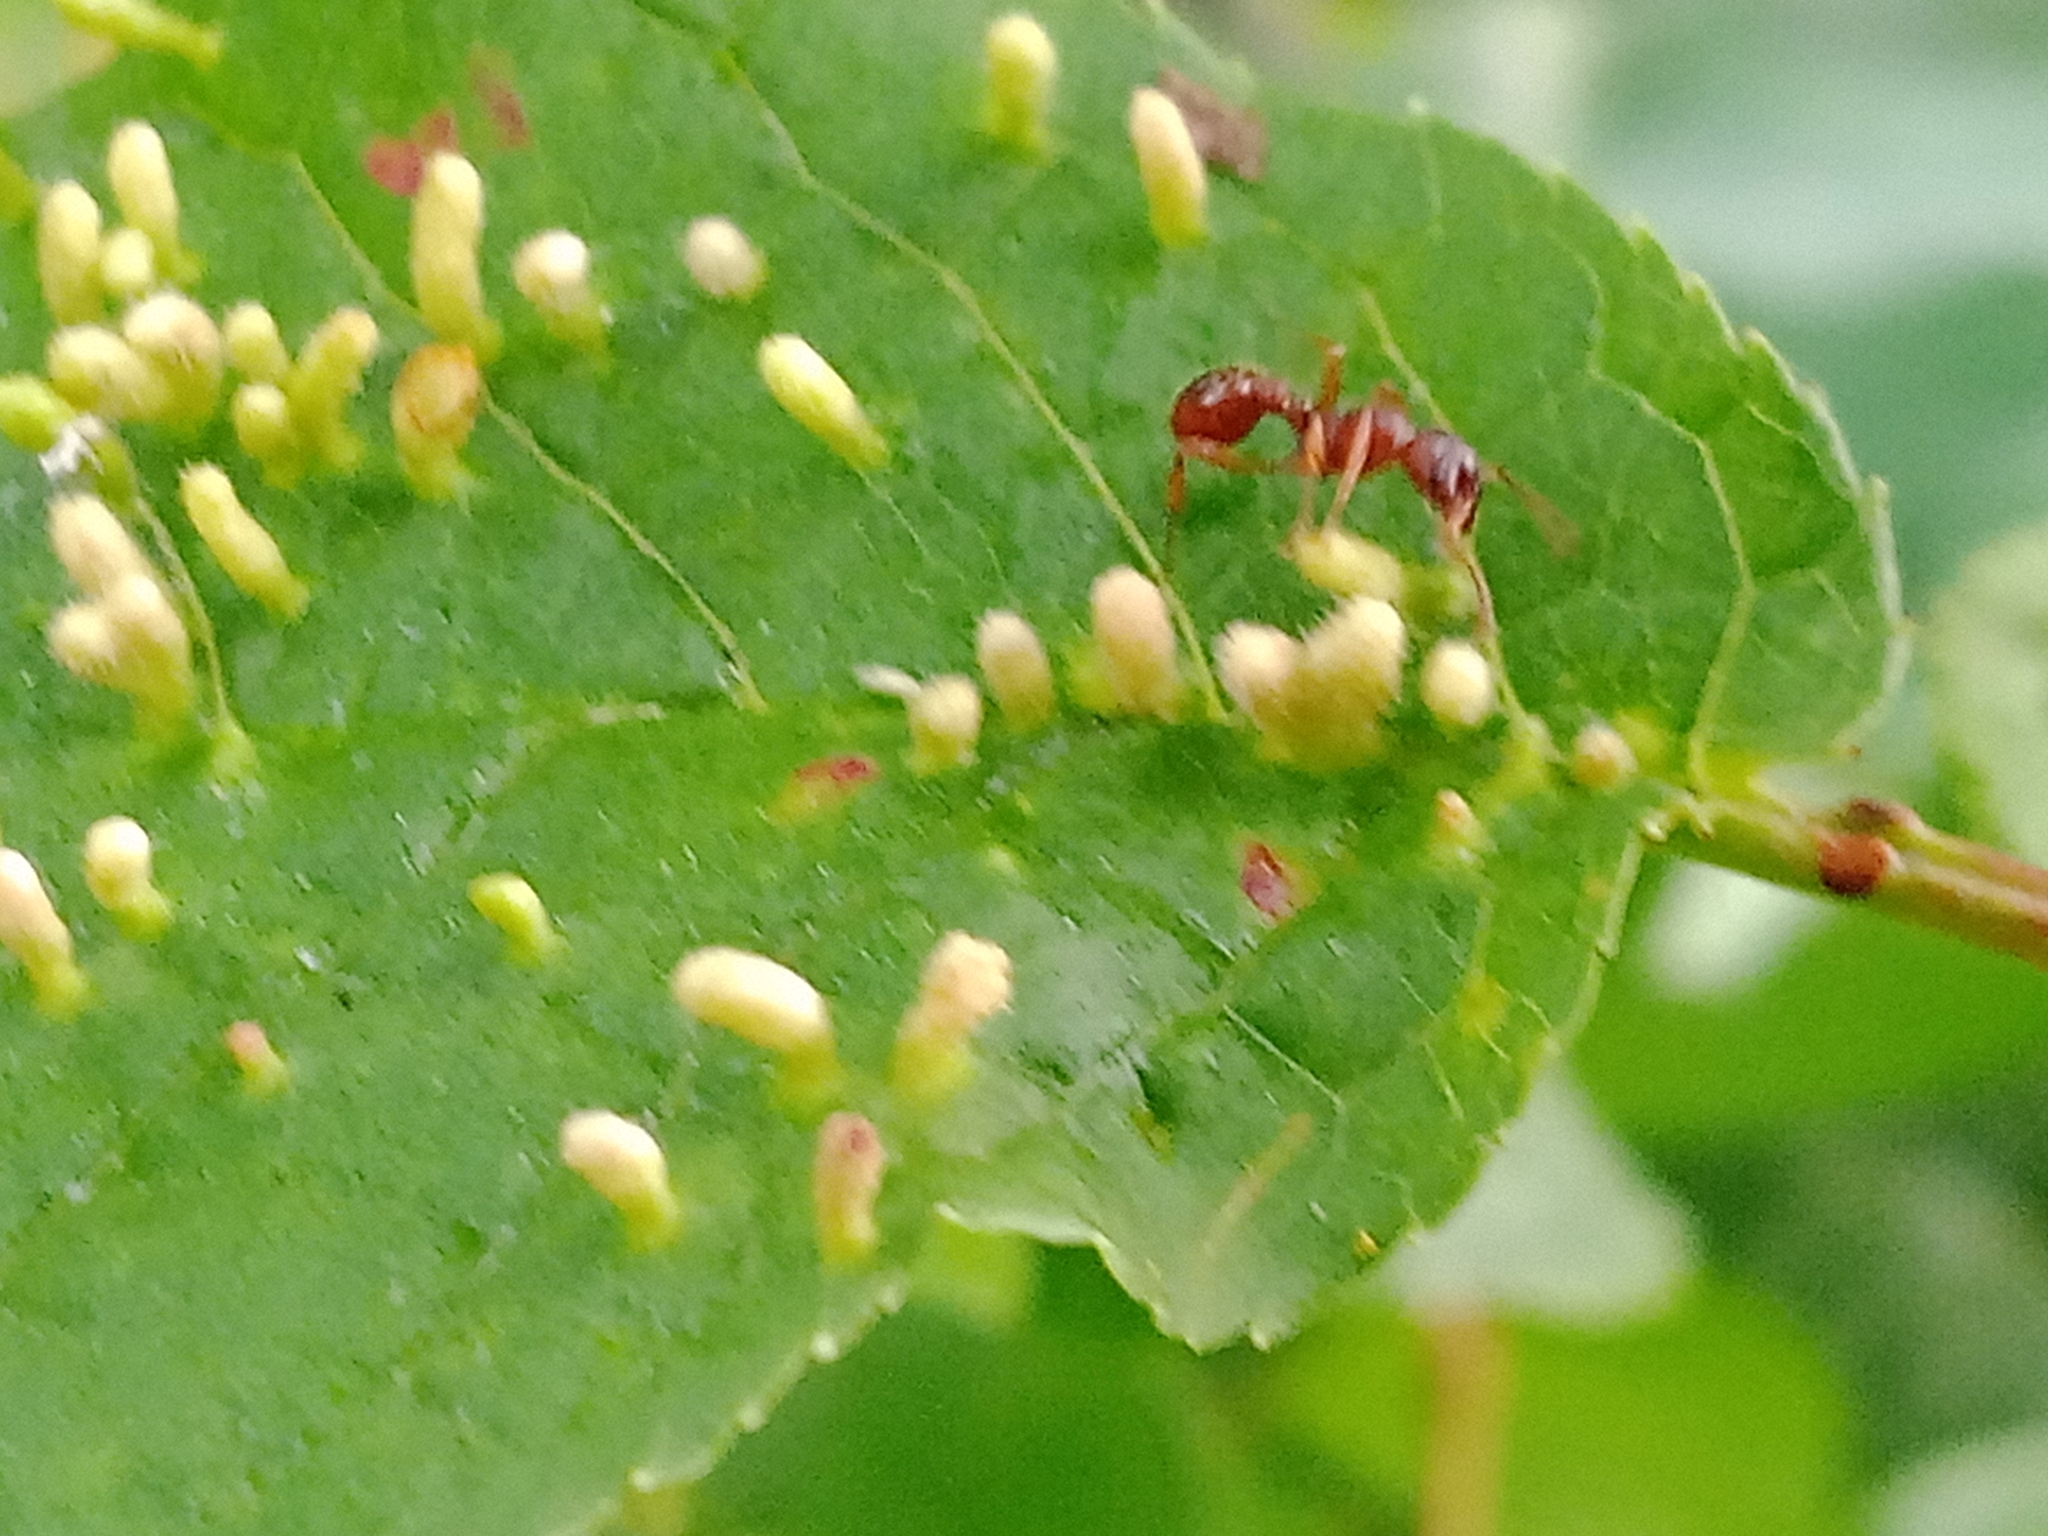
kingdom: Animalia
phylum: Arthropoda
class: Arachnida
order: Trombidiformes
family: Eriophyidae
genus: Phyllocoptes
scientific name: Phyllocoptes eupadi
